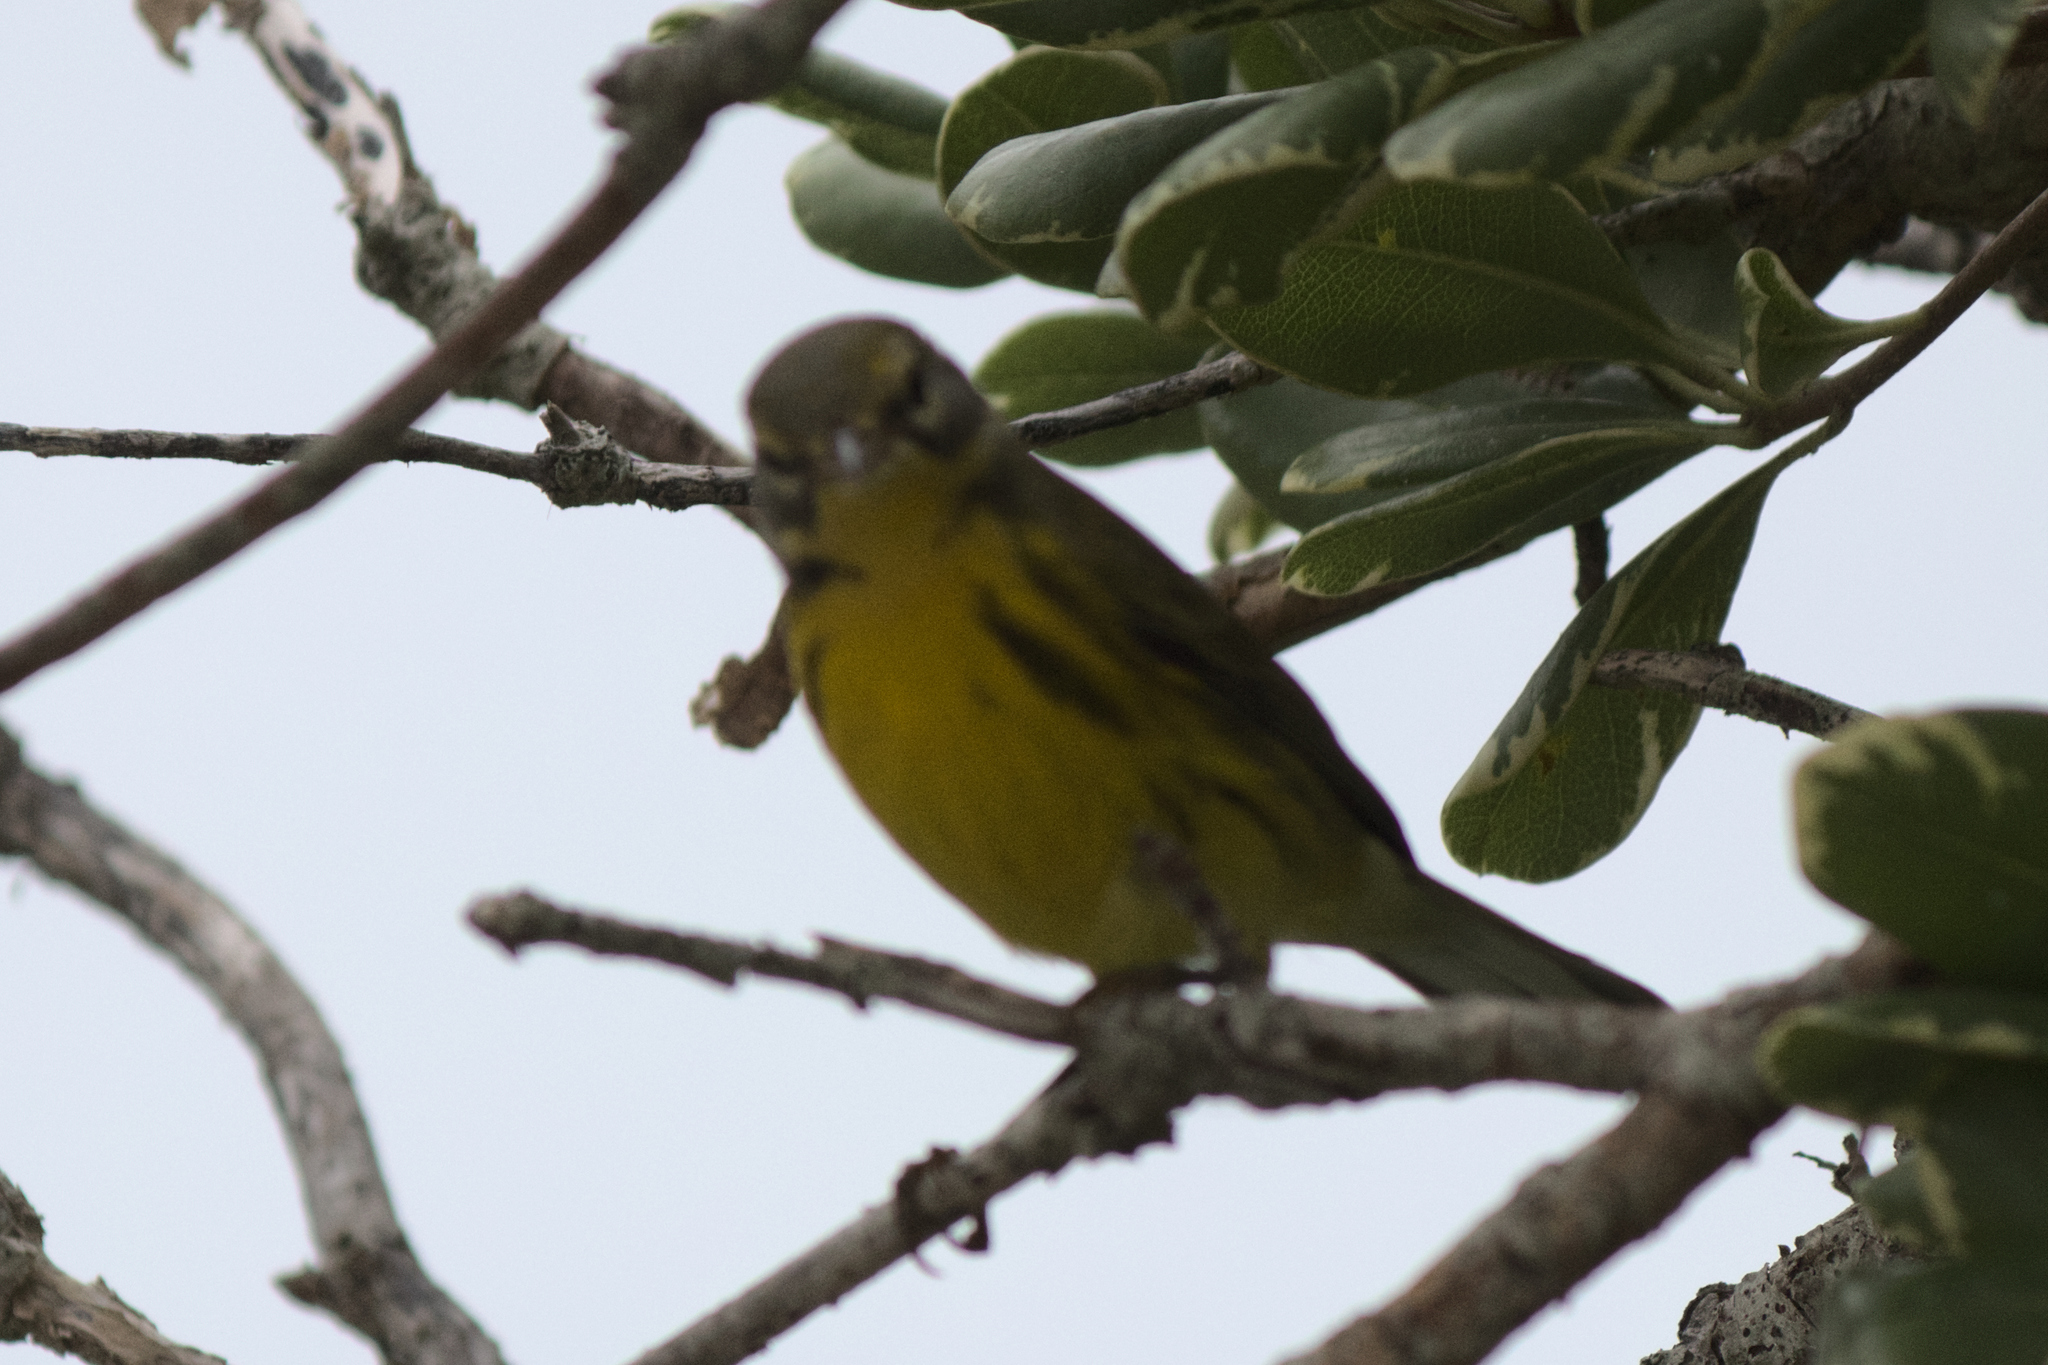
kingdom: Animalia
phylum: Chordata
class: Aves
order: Passeriformes
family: Parulidae
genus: Setophaga
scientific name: Setophaga discolor
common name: Prairie warbler
